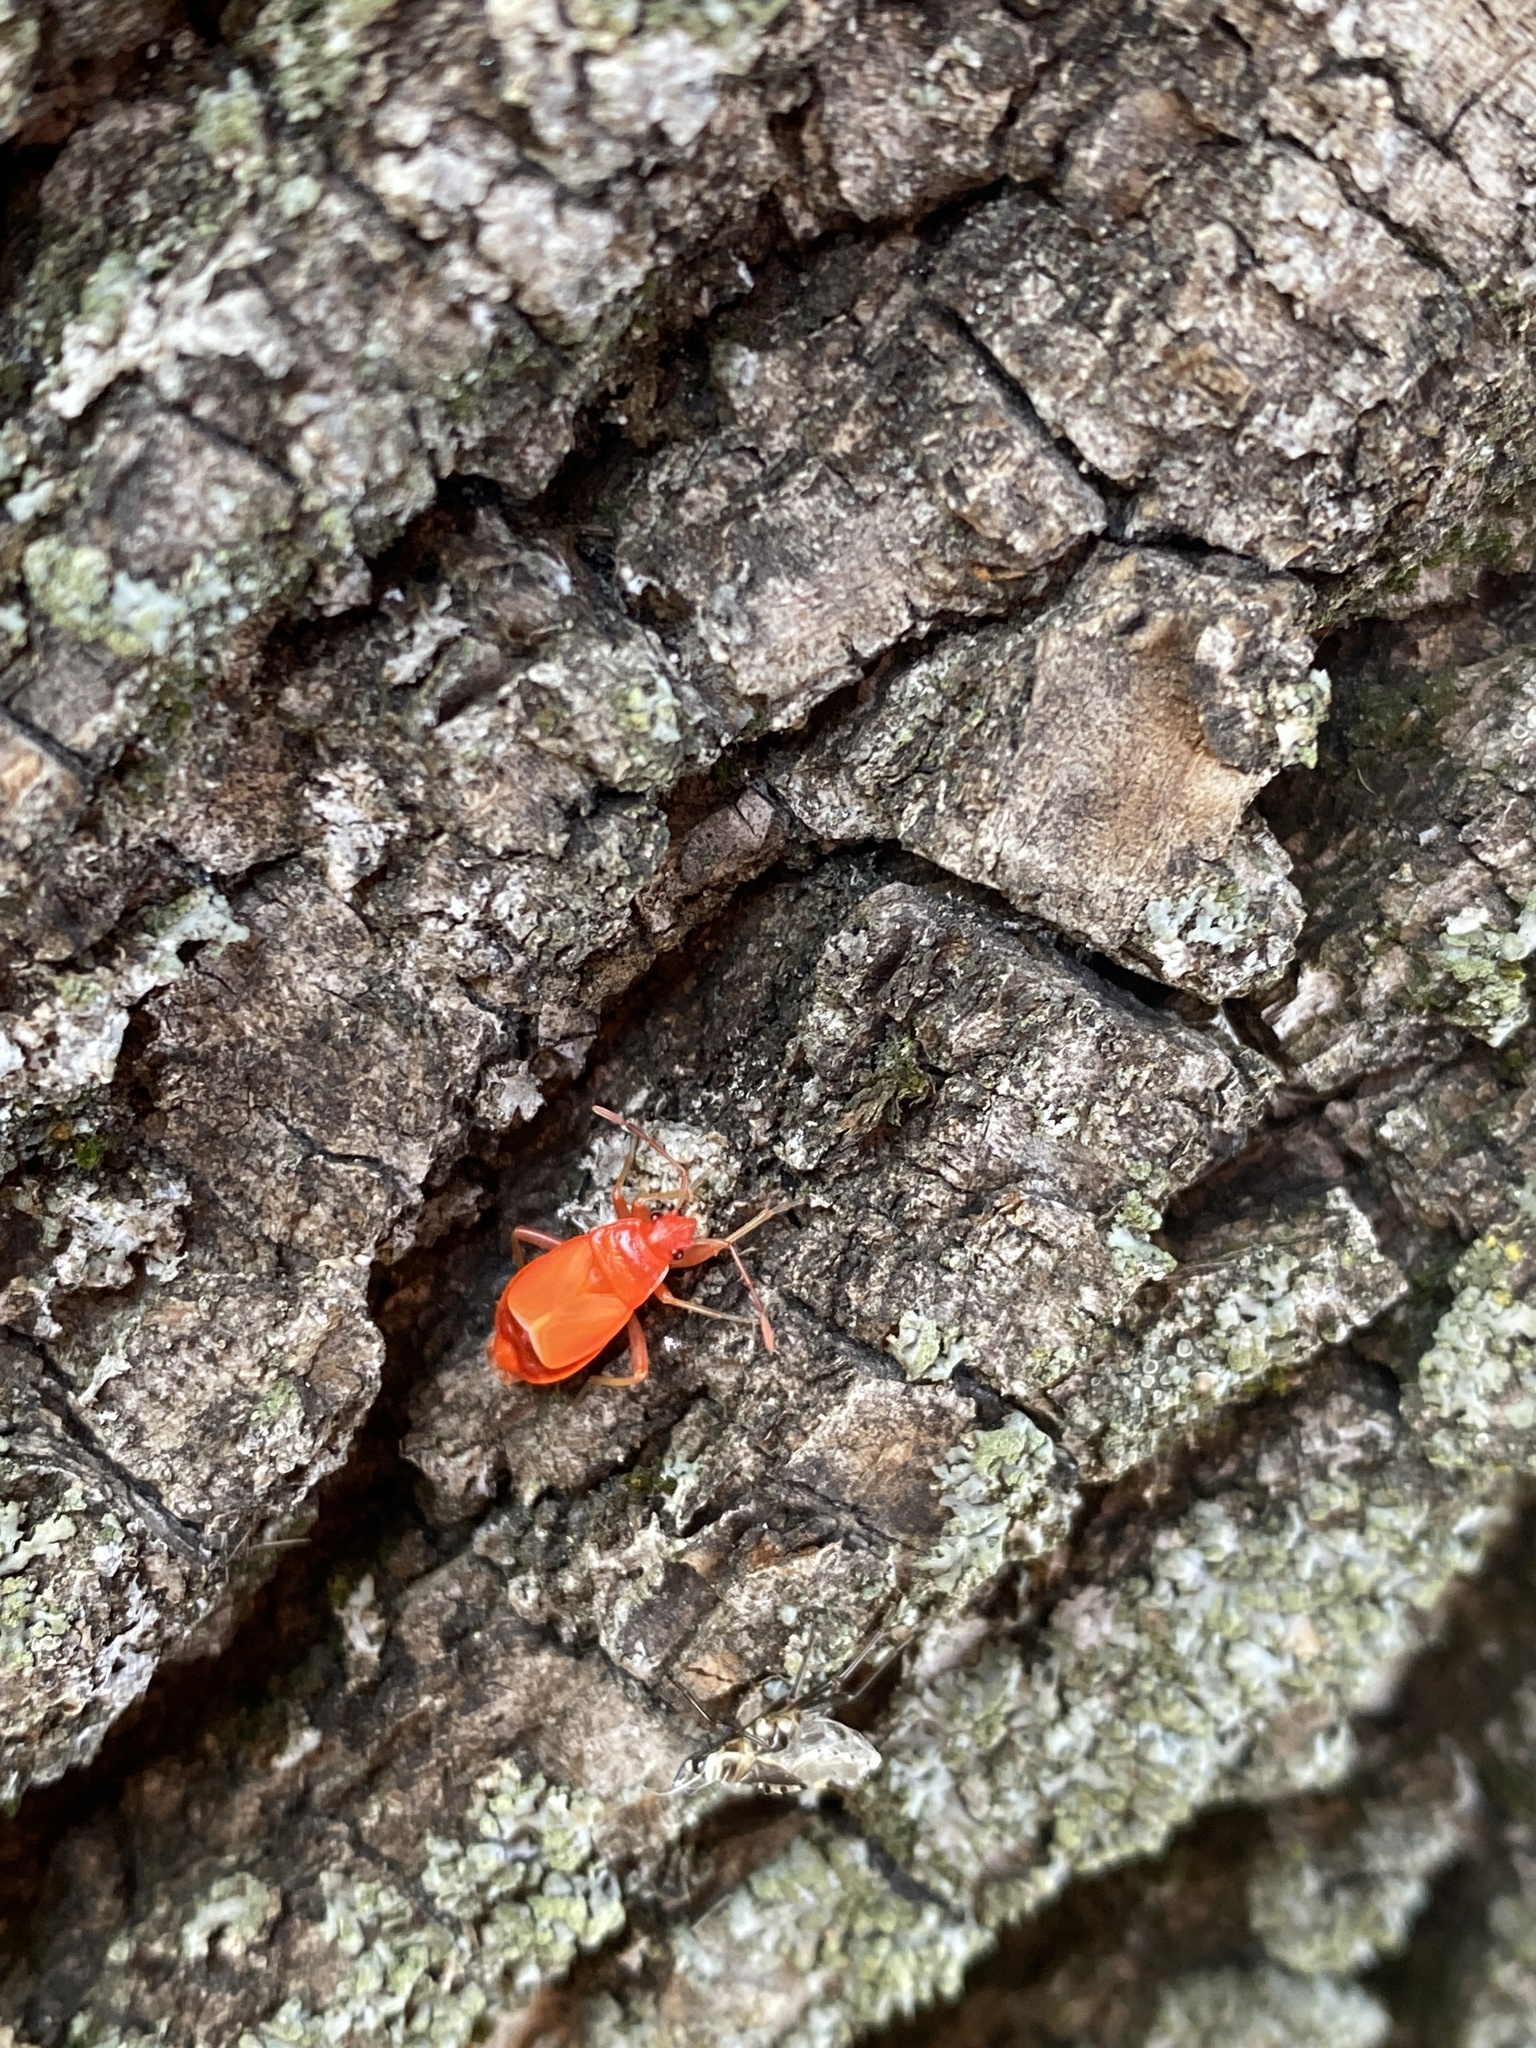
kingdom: Animalia
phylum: Arthropoda
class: Insecta
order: Hemiptera
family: Pyrrhocoridae
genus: Pyrrhocoris
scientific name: Pyrrhocoris apterus
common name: Firebug
